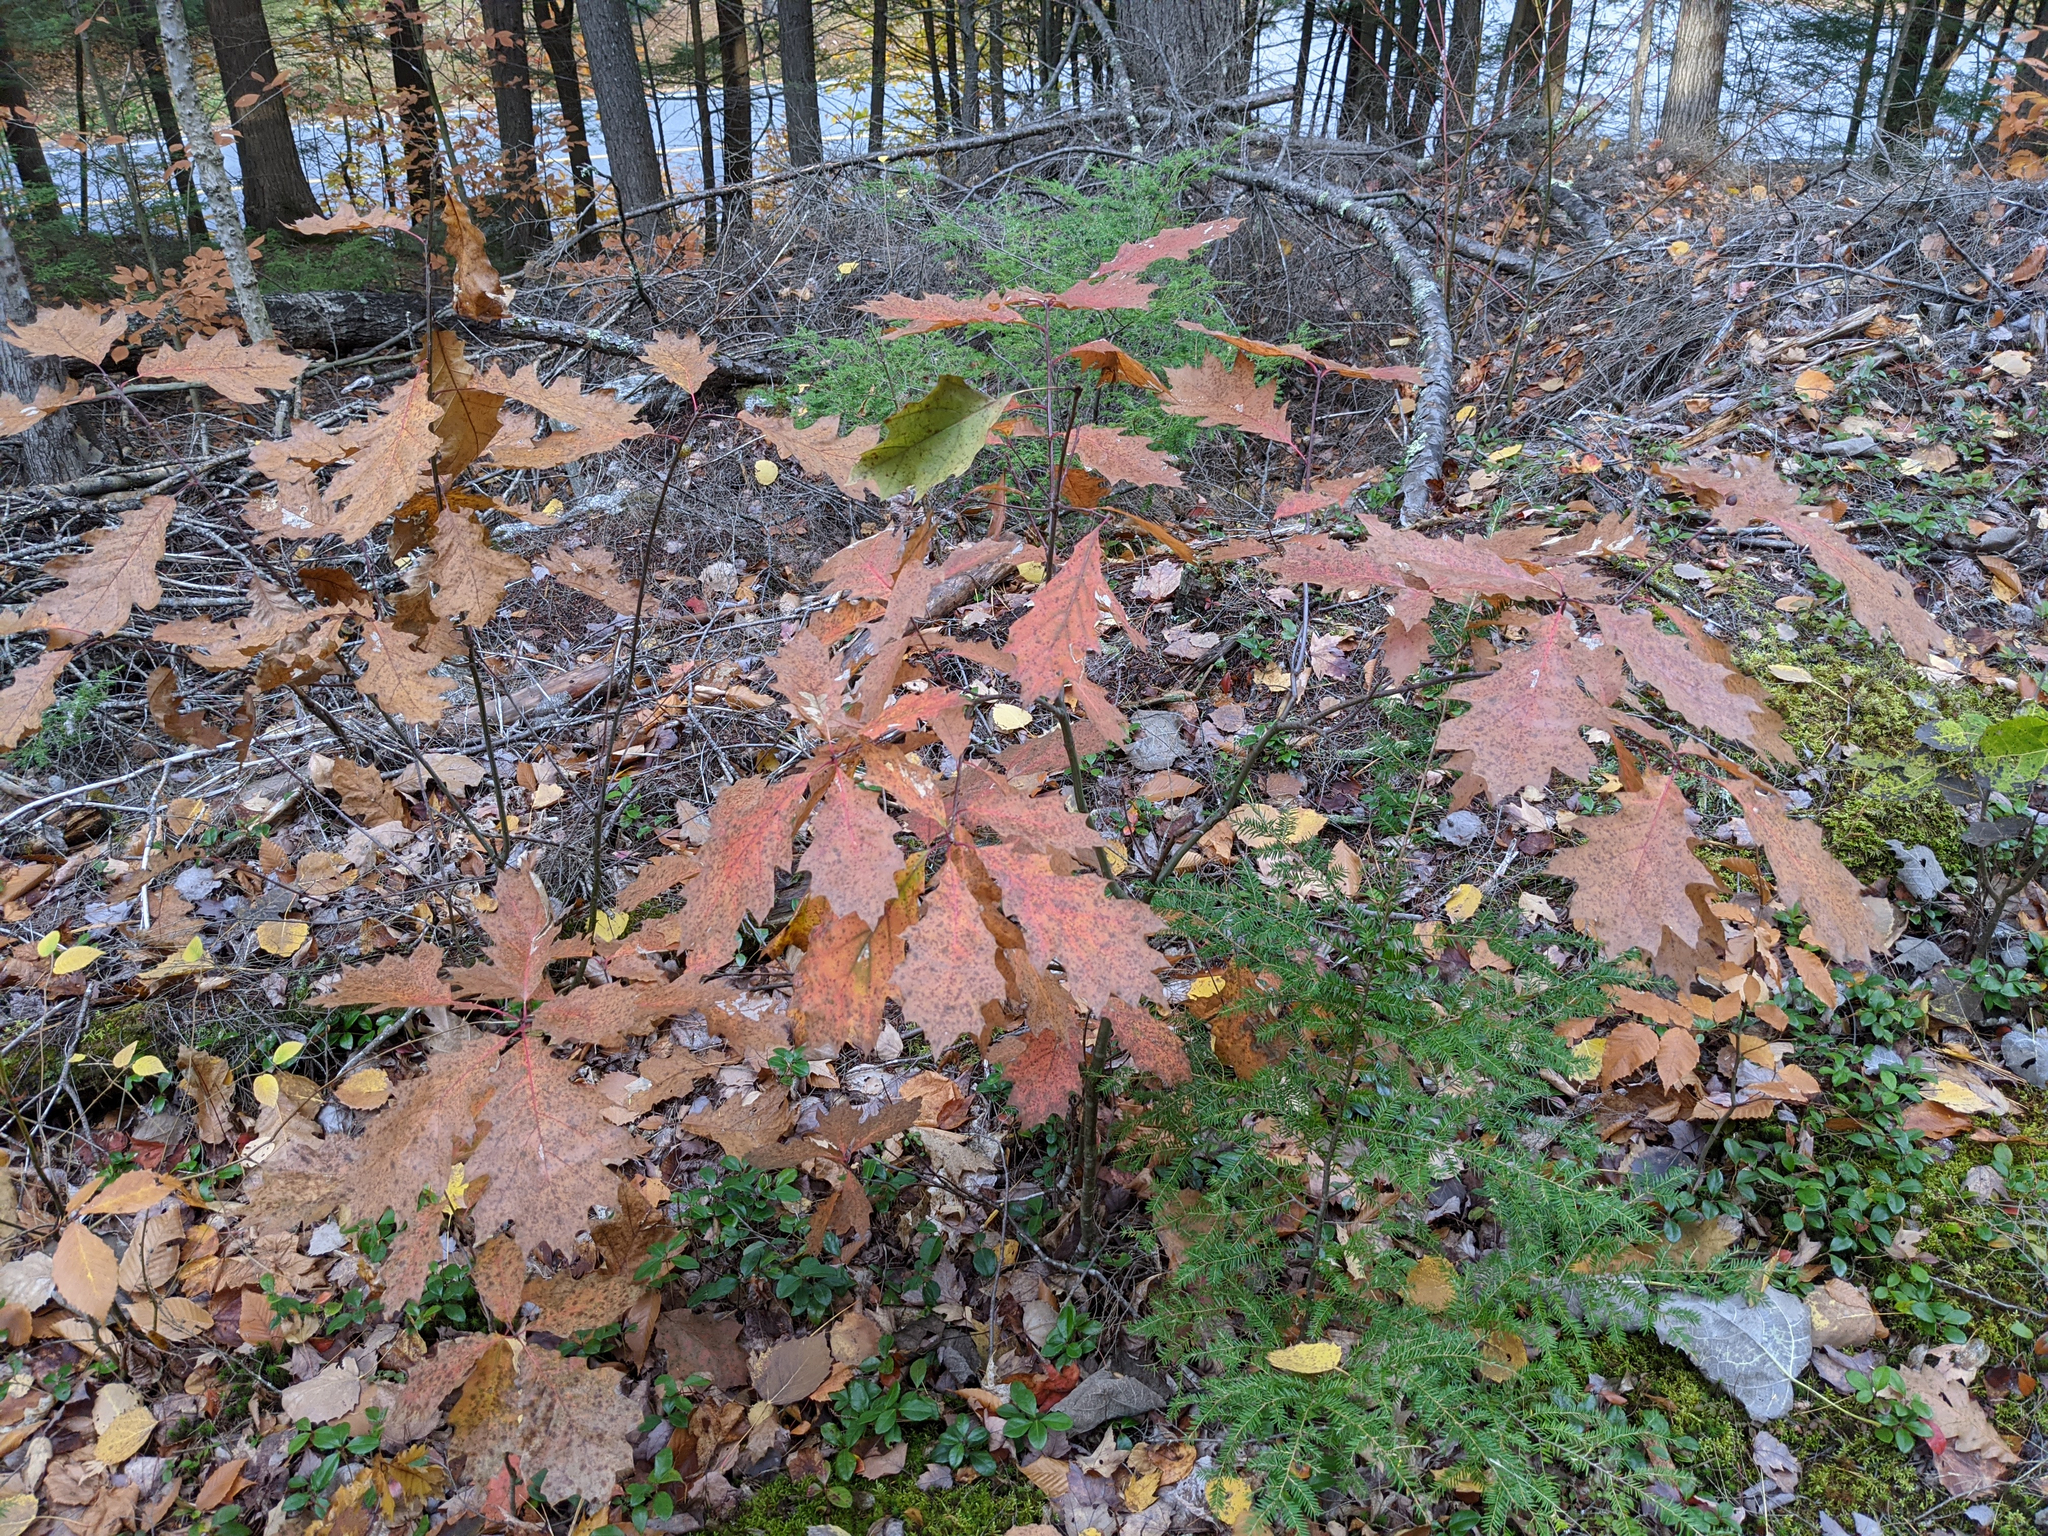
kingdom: Plantae
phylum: Tracheophyta
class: Magnoliopsida
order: Fagales
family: Fagaceae
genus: Quercus
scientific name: Quercus rubra
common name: Red oak
